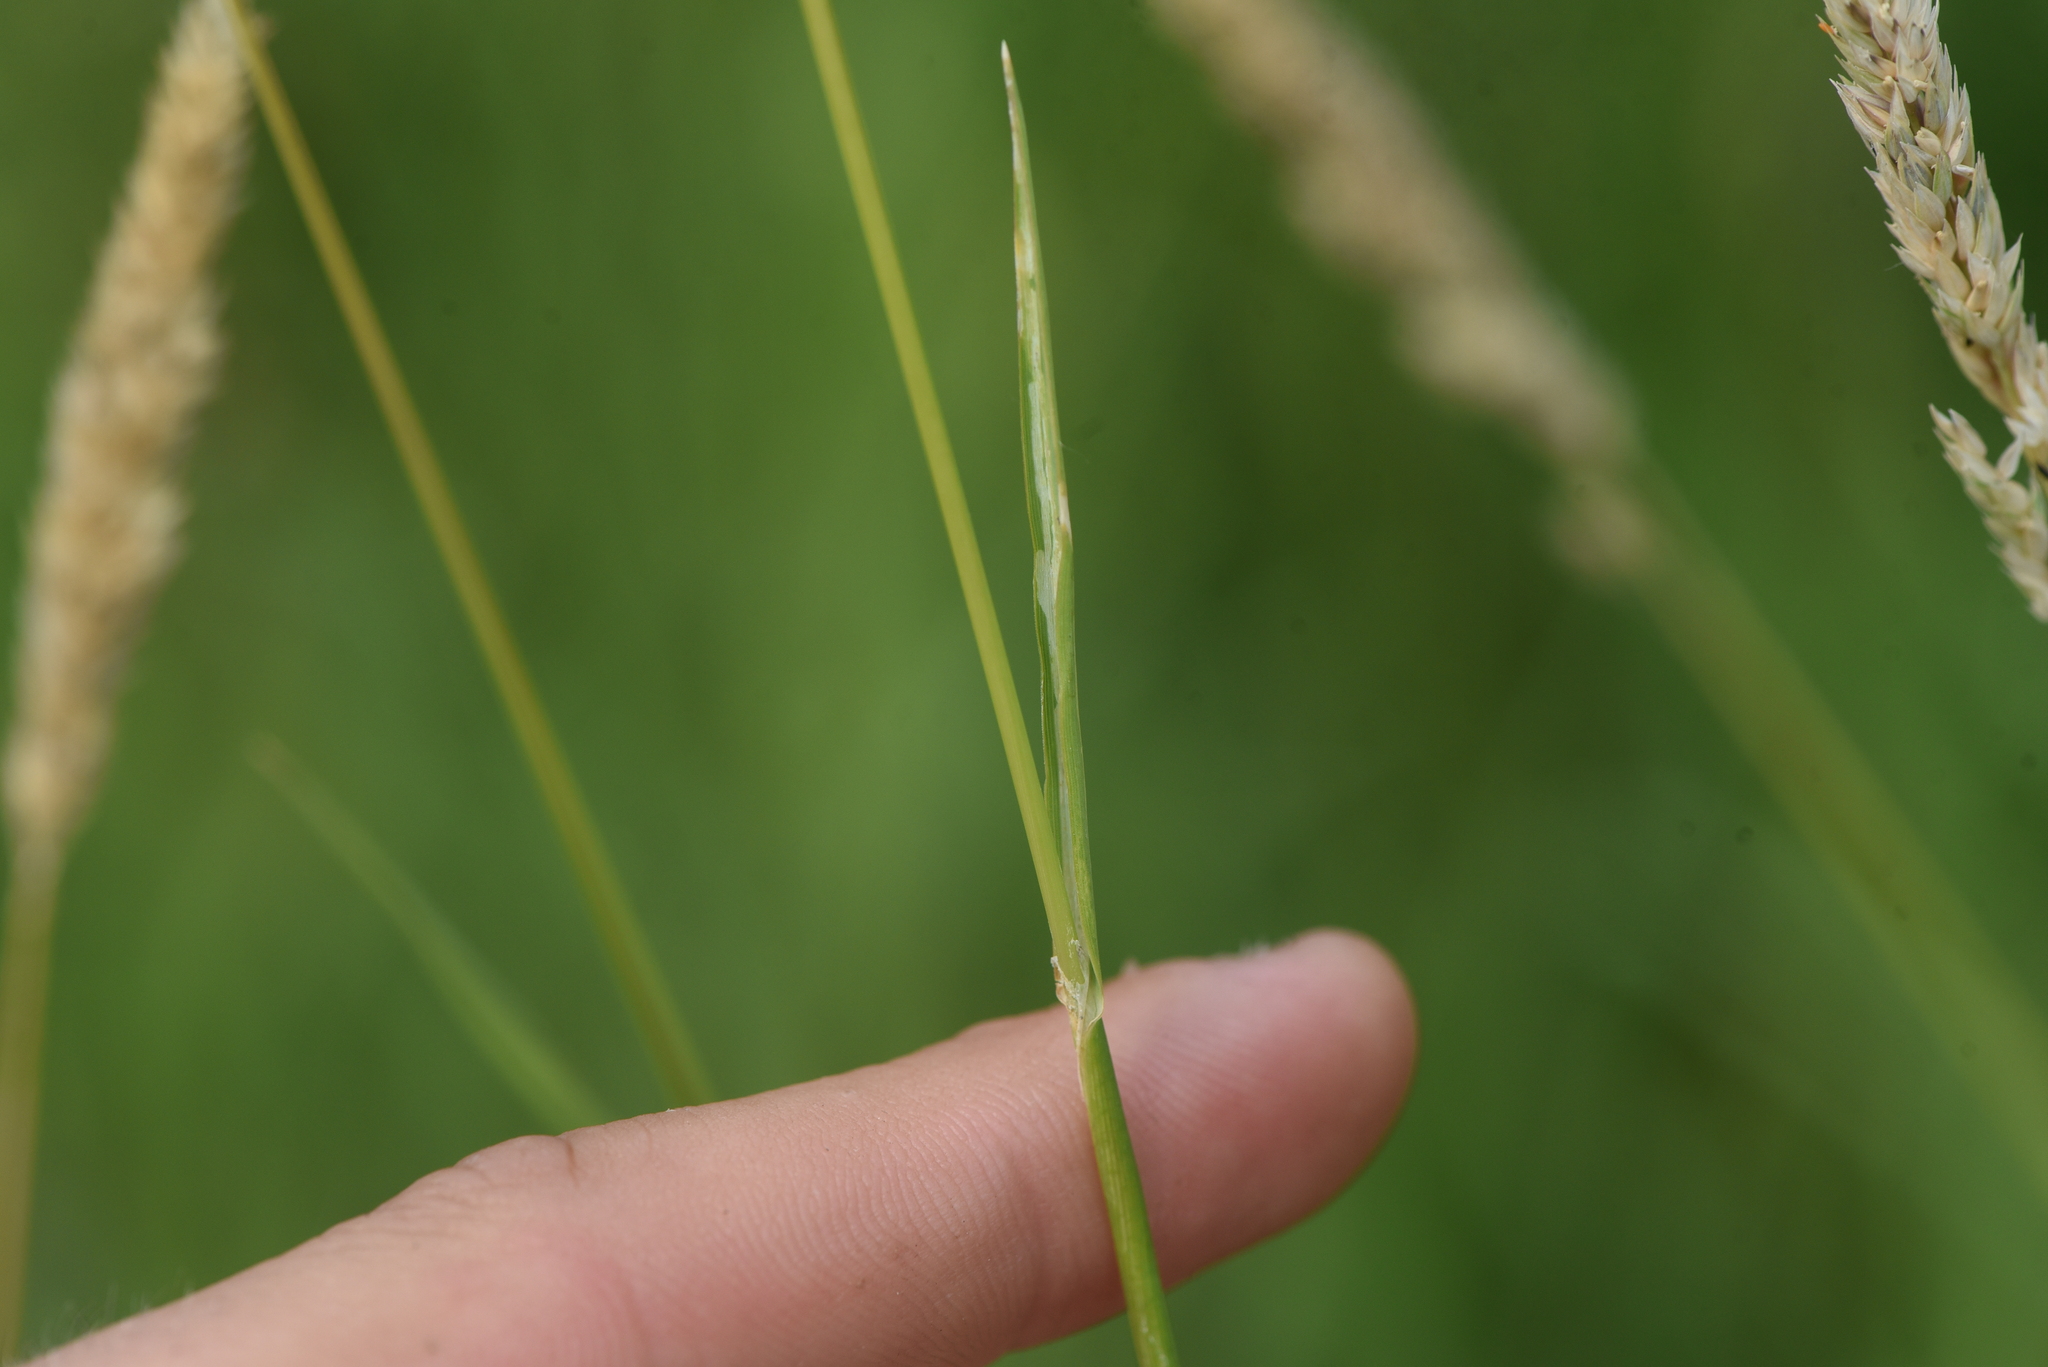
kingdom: Plantae
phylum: Tracheophyta
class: Liliopsida
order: Poales
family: Poaceae
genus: Phalaris
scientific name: Phalaris arundinacea
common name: Reed canary-grass
